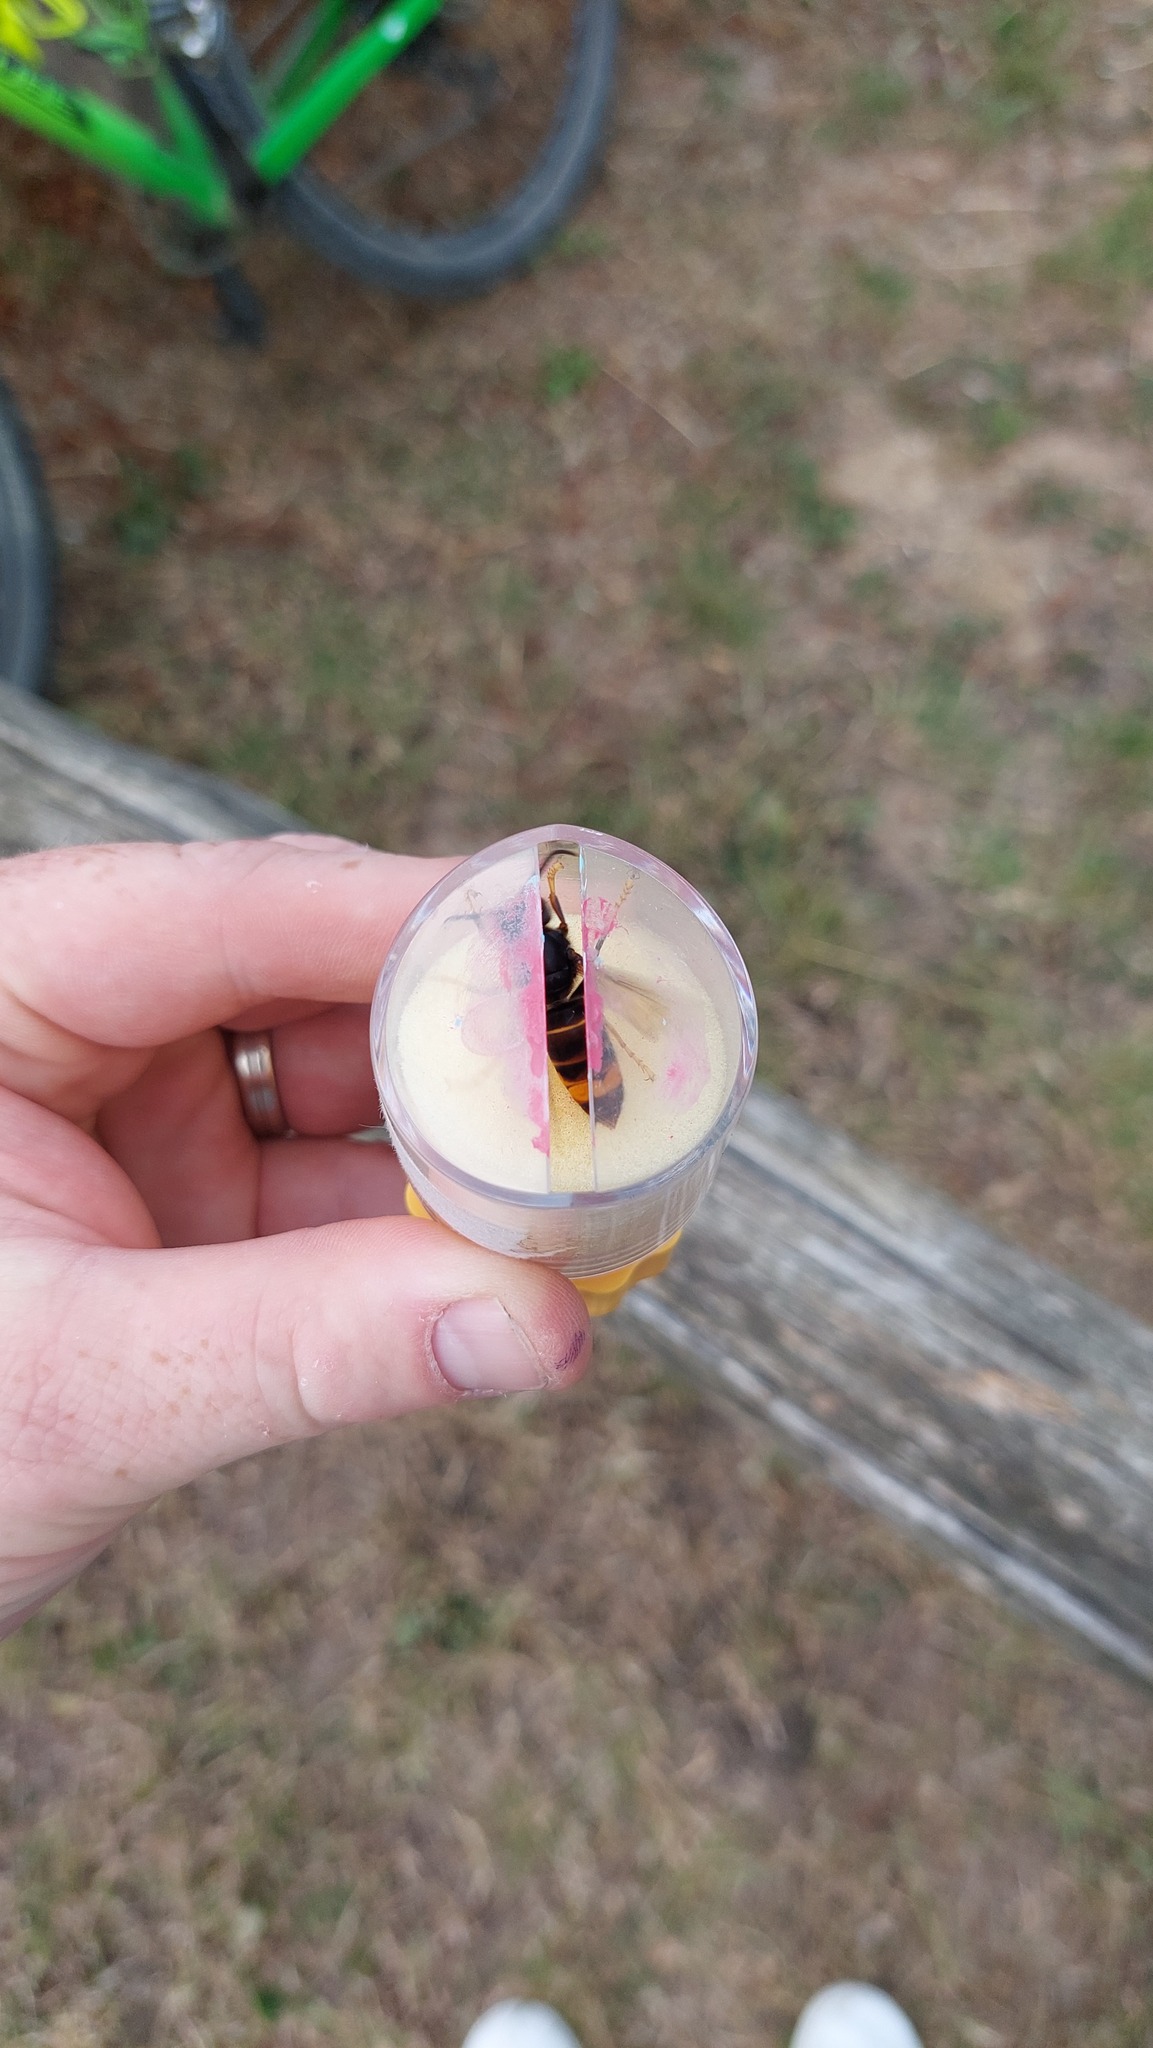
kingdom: Animalia
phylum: Arthropoda
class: Insecta
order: Hymenoptera
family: Vespidae
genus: Vespa
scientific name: Vespa velutina
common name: Asian hornet
